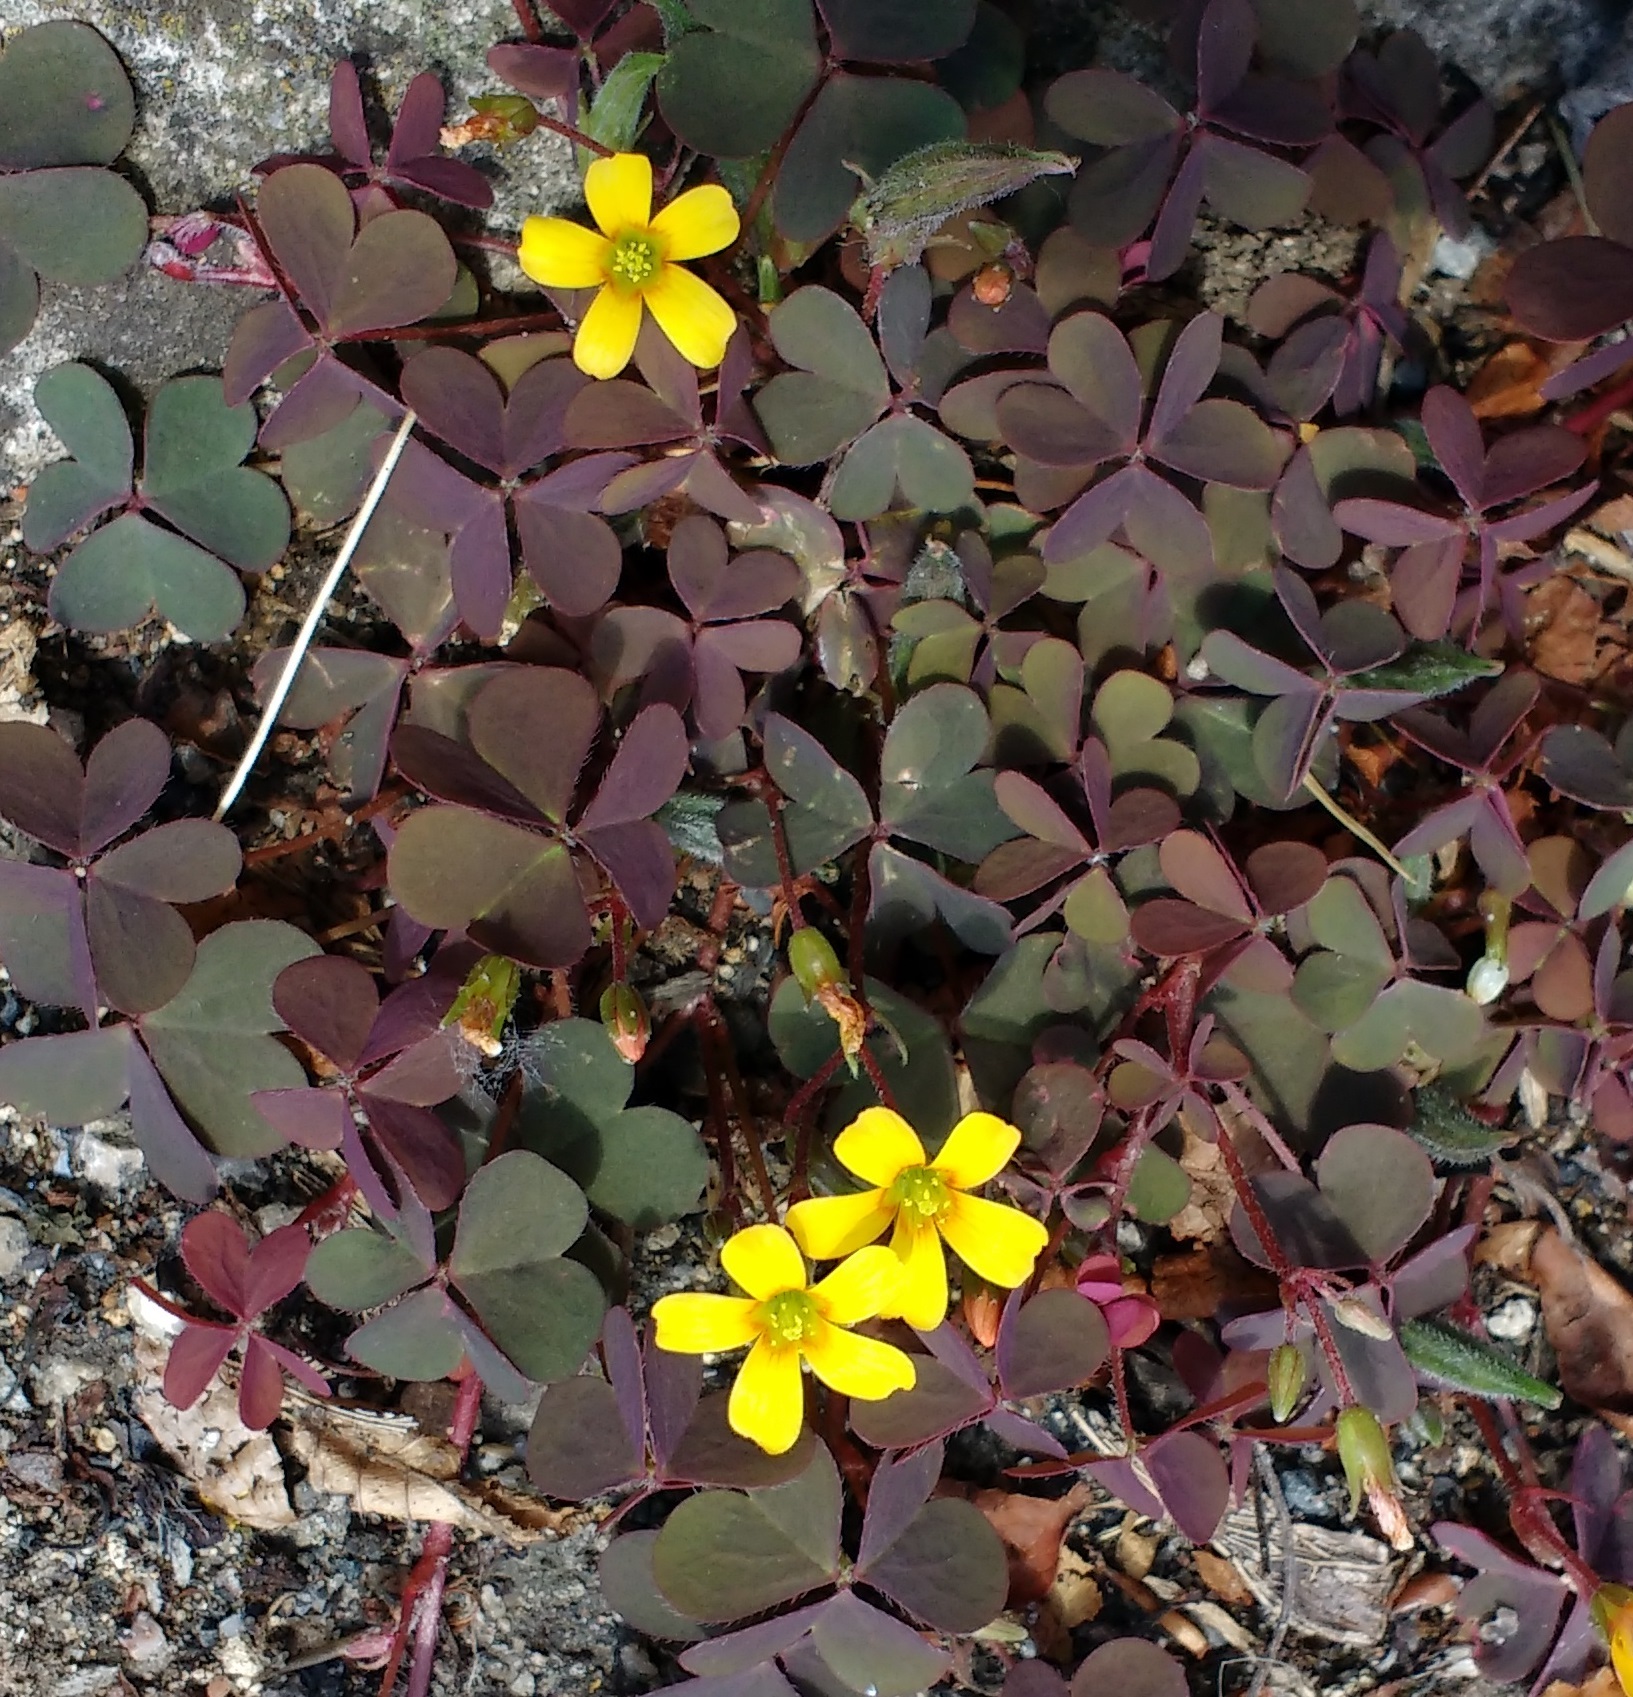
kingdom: Plantae
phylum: Tracheophyta
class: Magnoliopsida
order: Oxalidales
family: Oxalidaceae
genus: Oxalis
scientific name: Oxalis corniculata
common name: Procumbent yellow-sorrel
